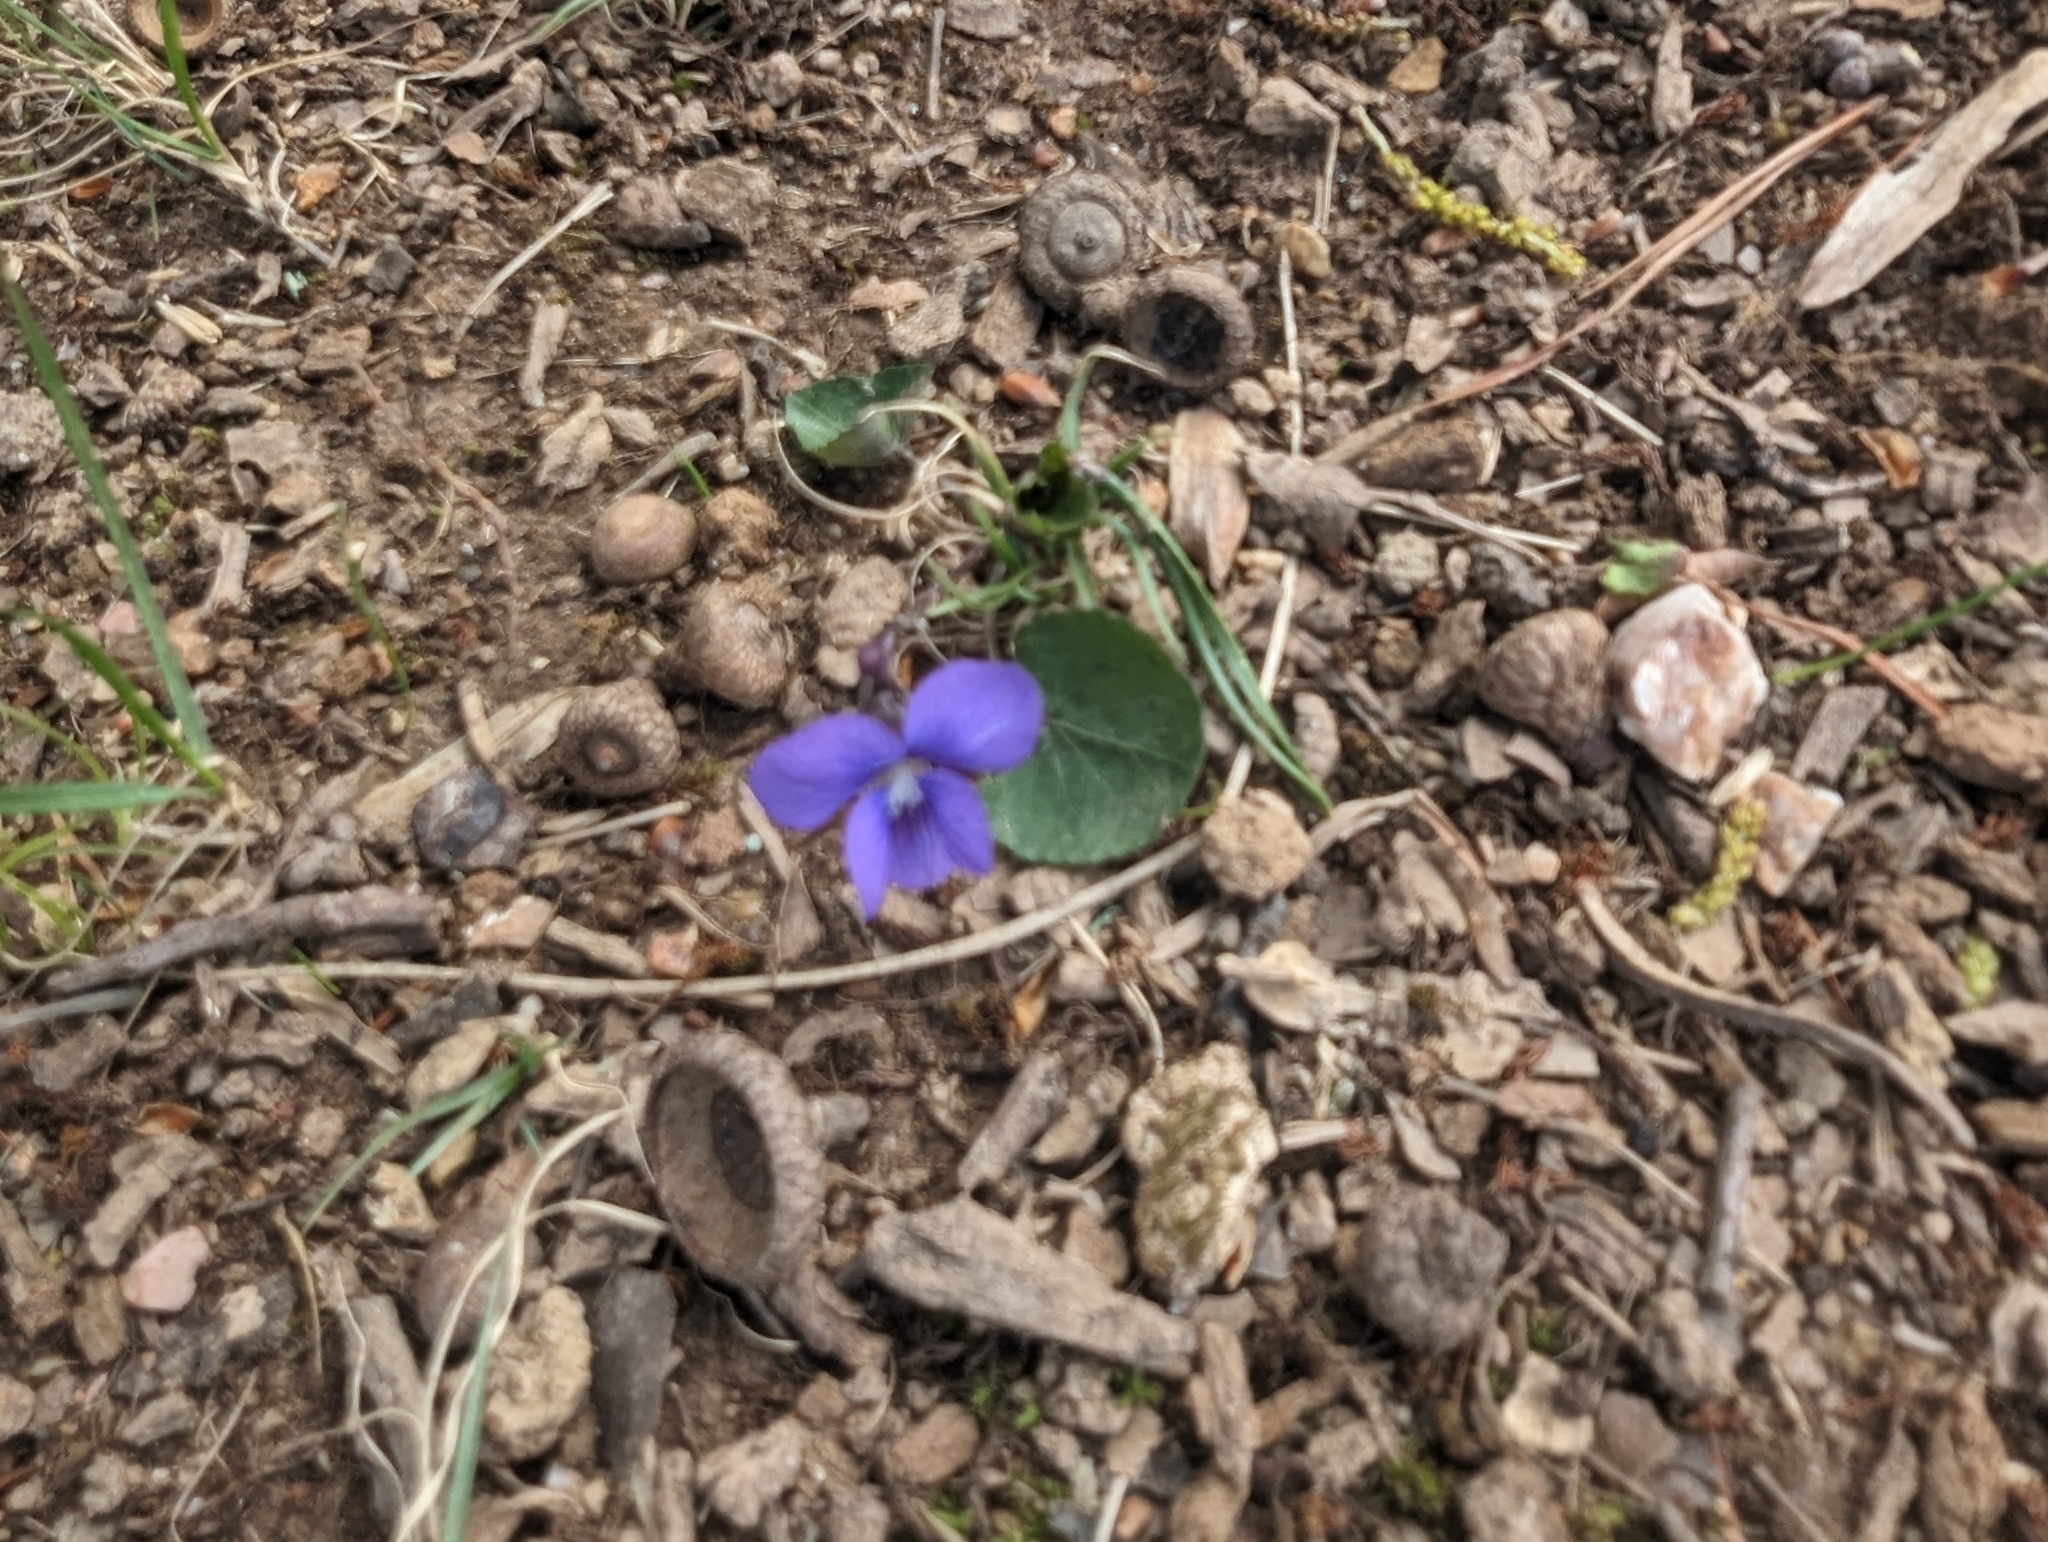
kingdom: Plantae
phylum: Tracheophyta
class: Magnoliopsida
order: Malpighiales
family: Violaceae
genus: Viola
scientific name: Viola sororia
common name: Dooryard violet
